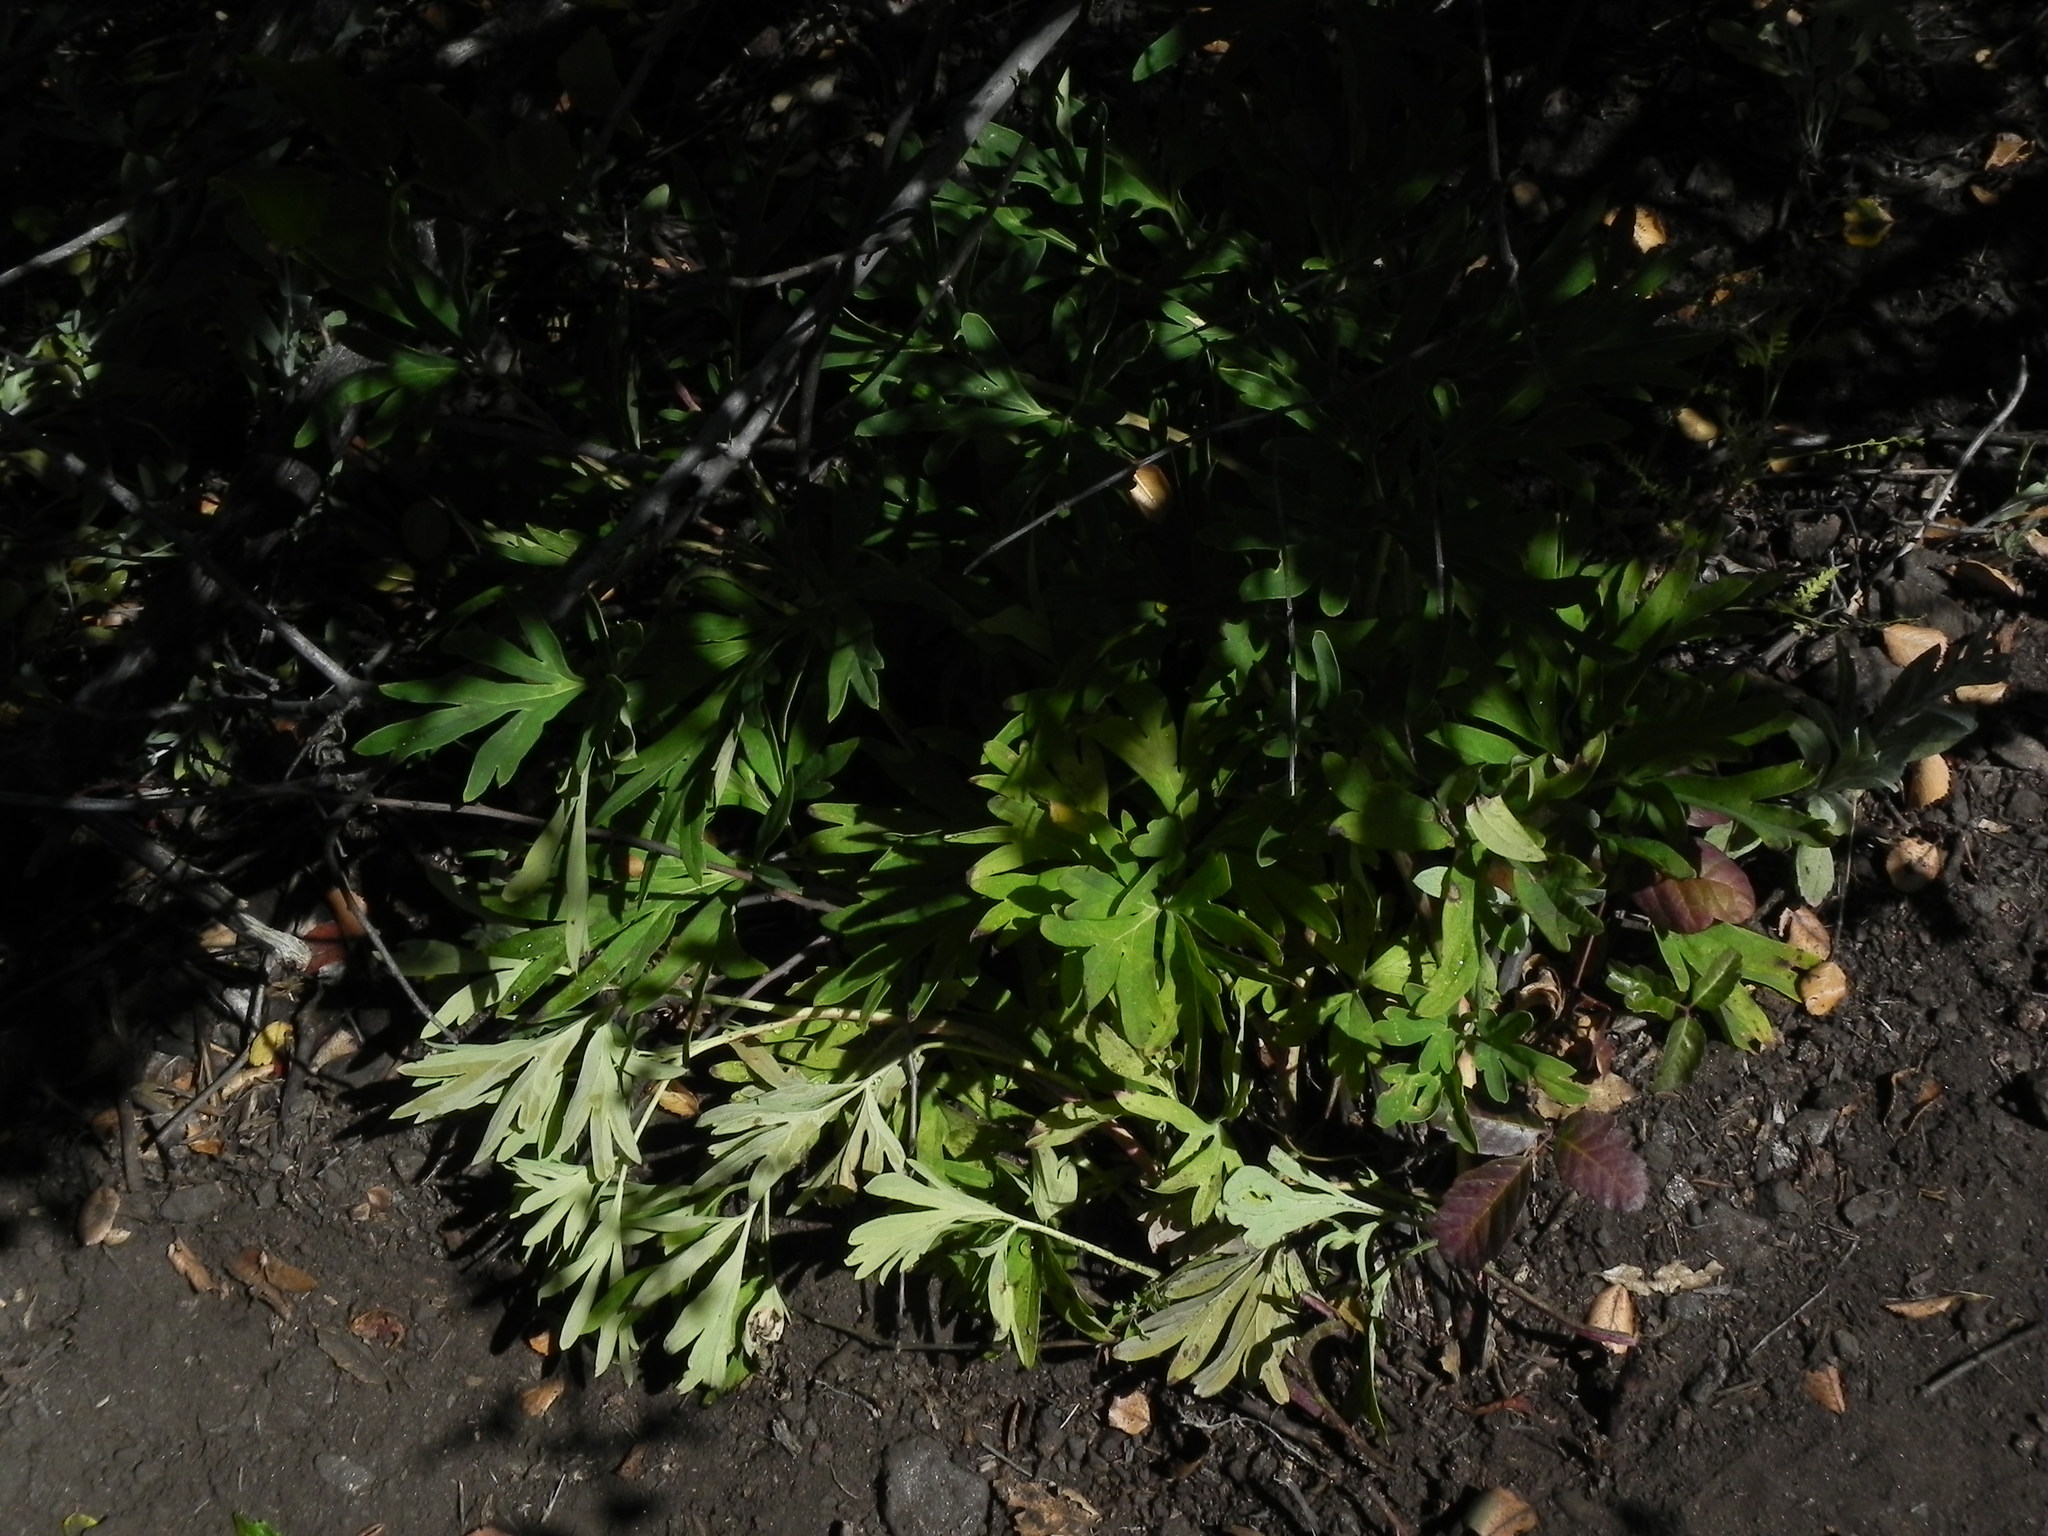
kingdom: Plantae
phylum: Tracheophyta
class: Magnoliopsida
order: Saxifragales
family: Paeoniaceae
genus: Paeonia
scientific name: Paeonia californica
